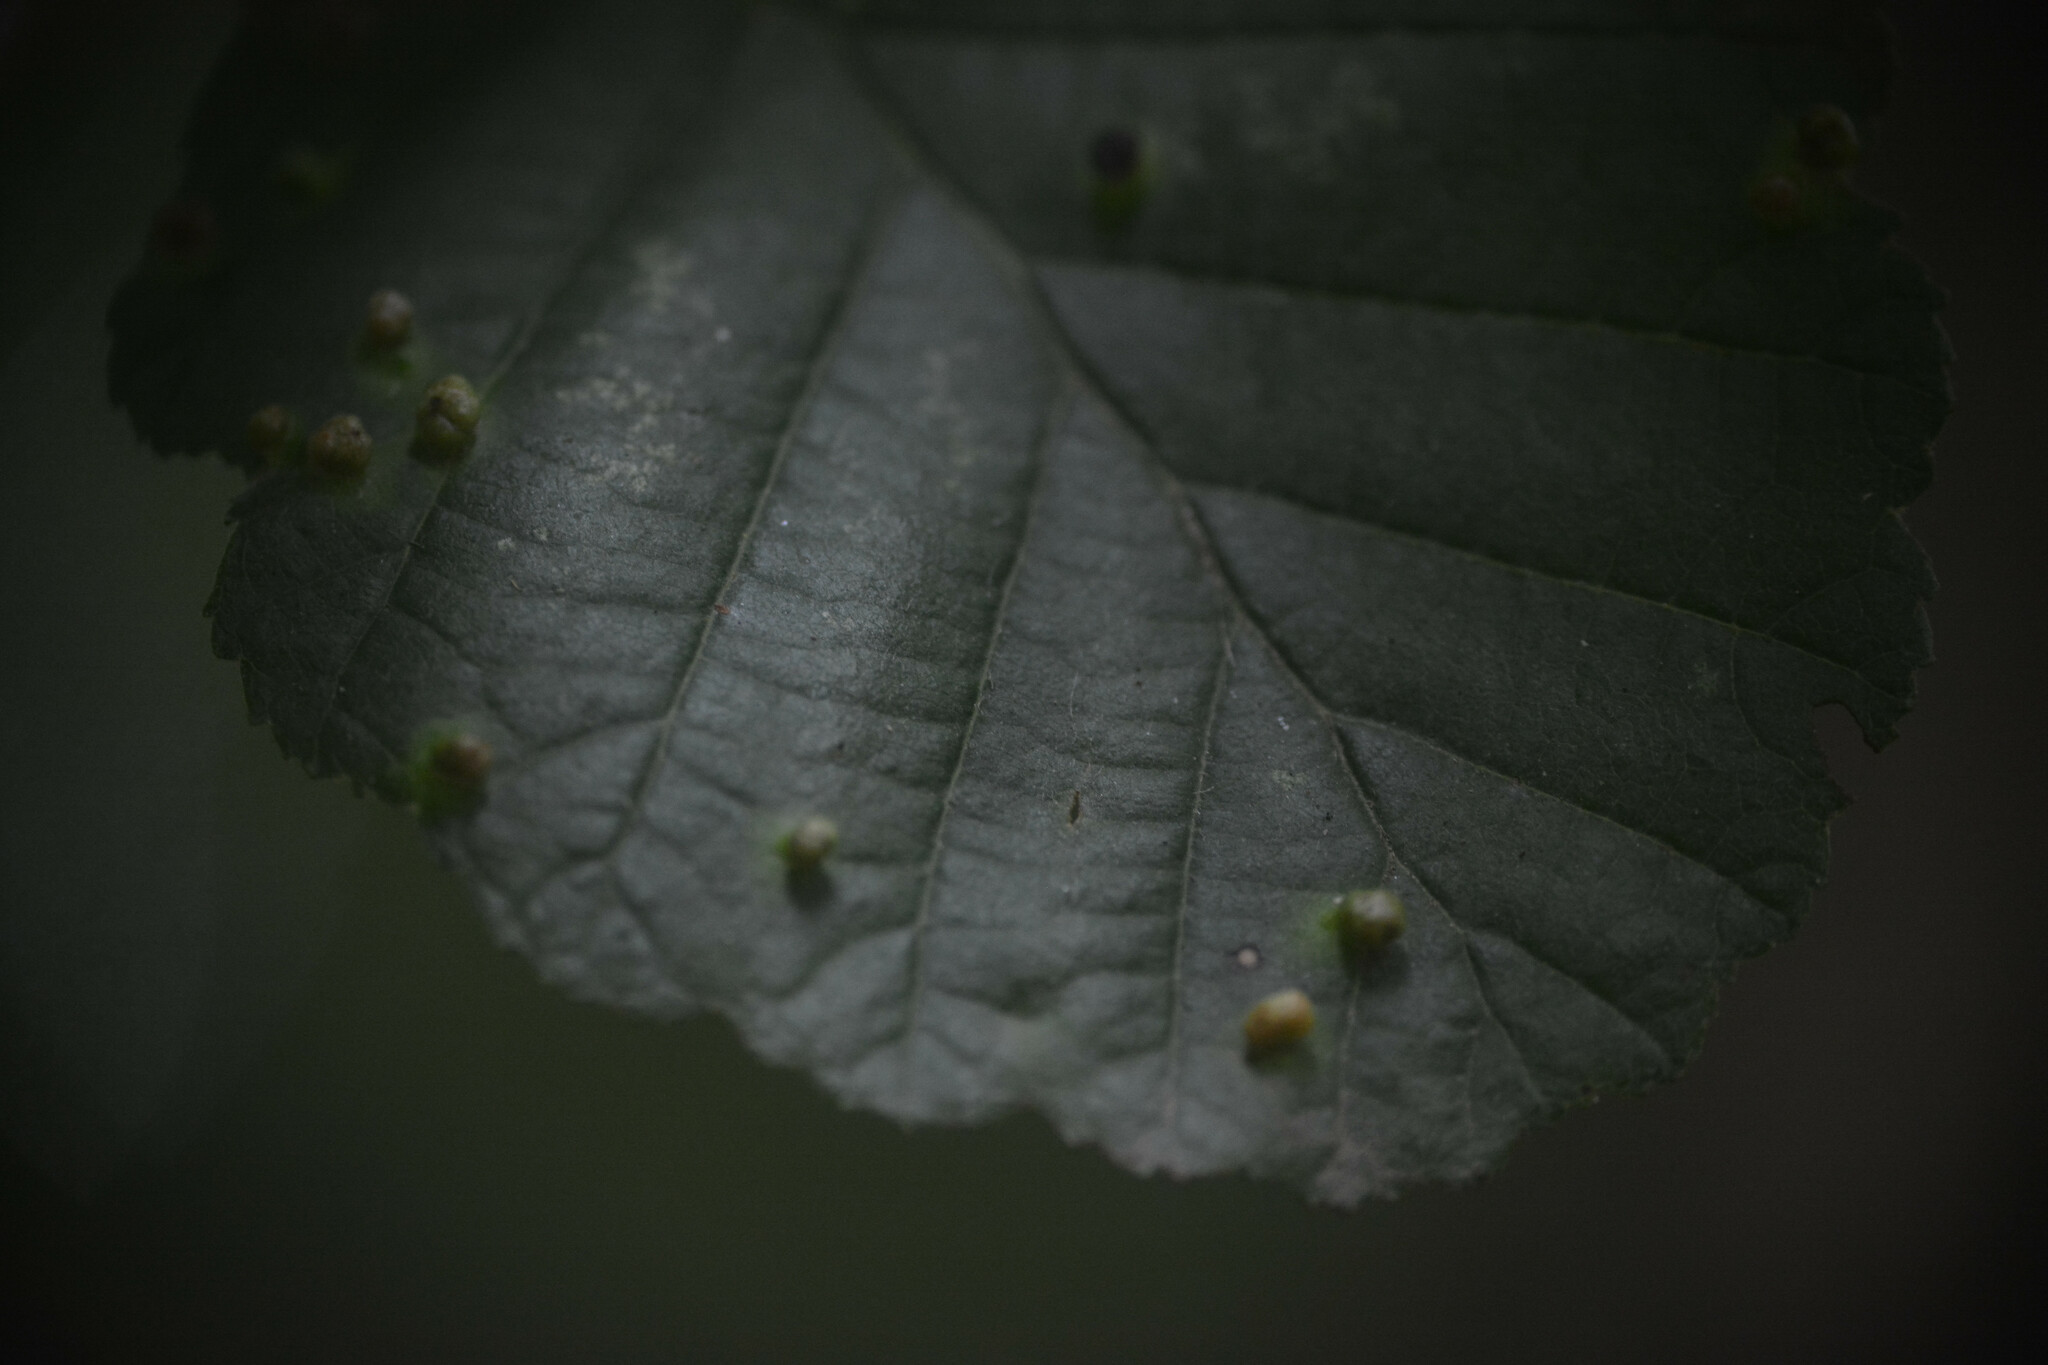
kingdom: Animalia
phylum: Arthropoda
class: Arachnida
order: Trombidiformes
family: Eriophyidae
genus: Eriophyes
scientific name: Eriophyes laevis
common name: Alder leaf gall mite
